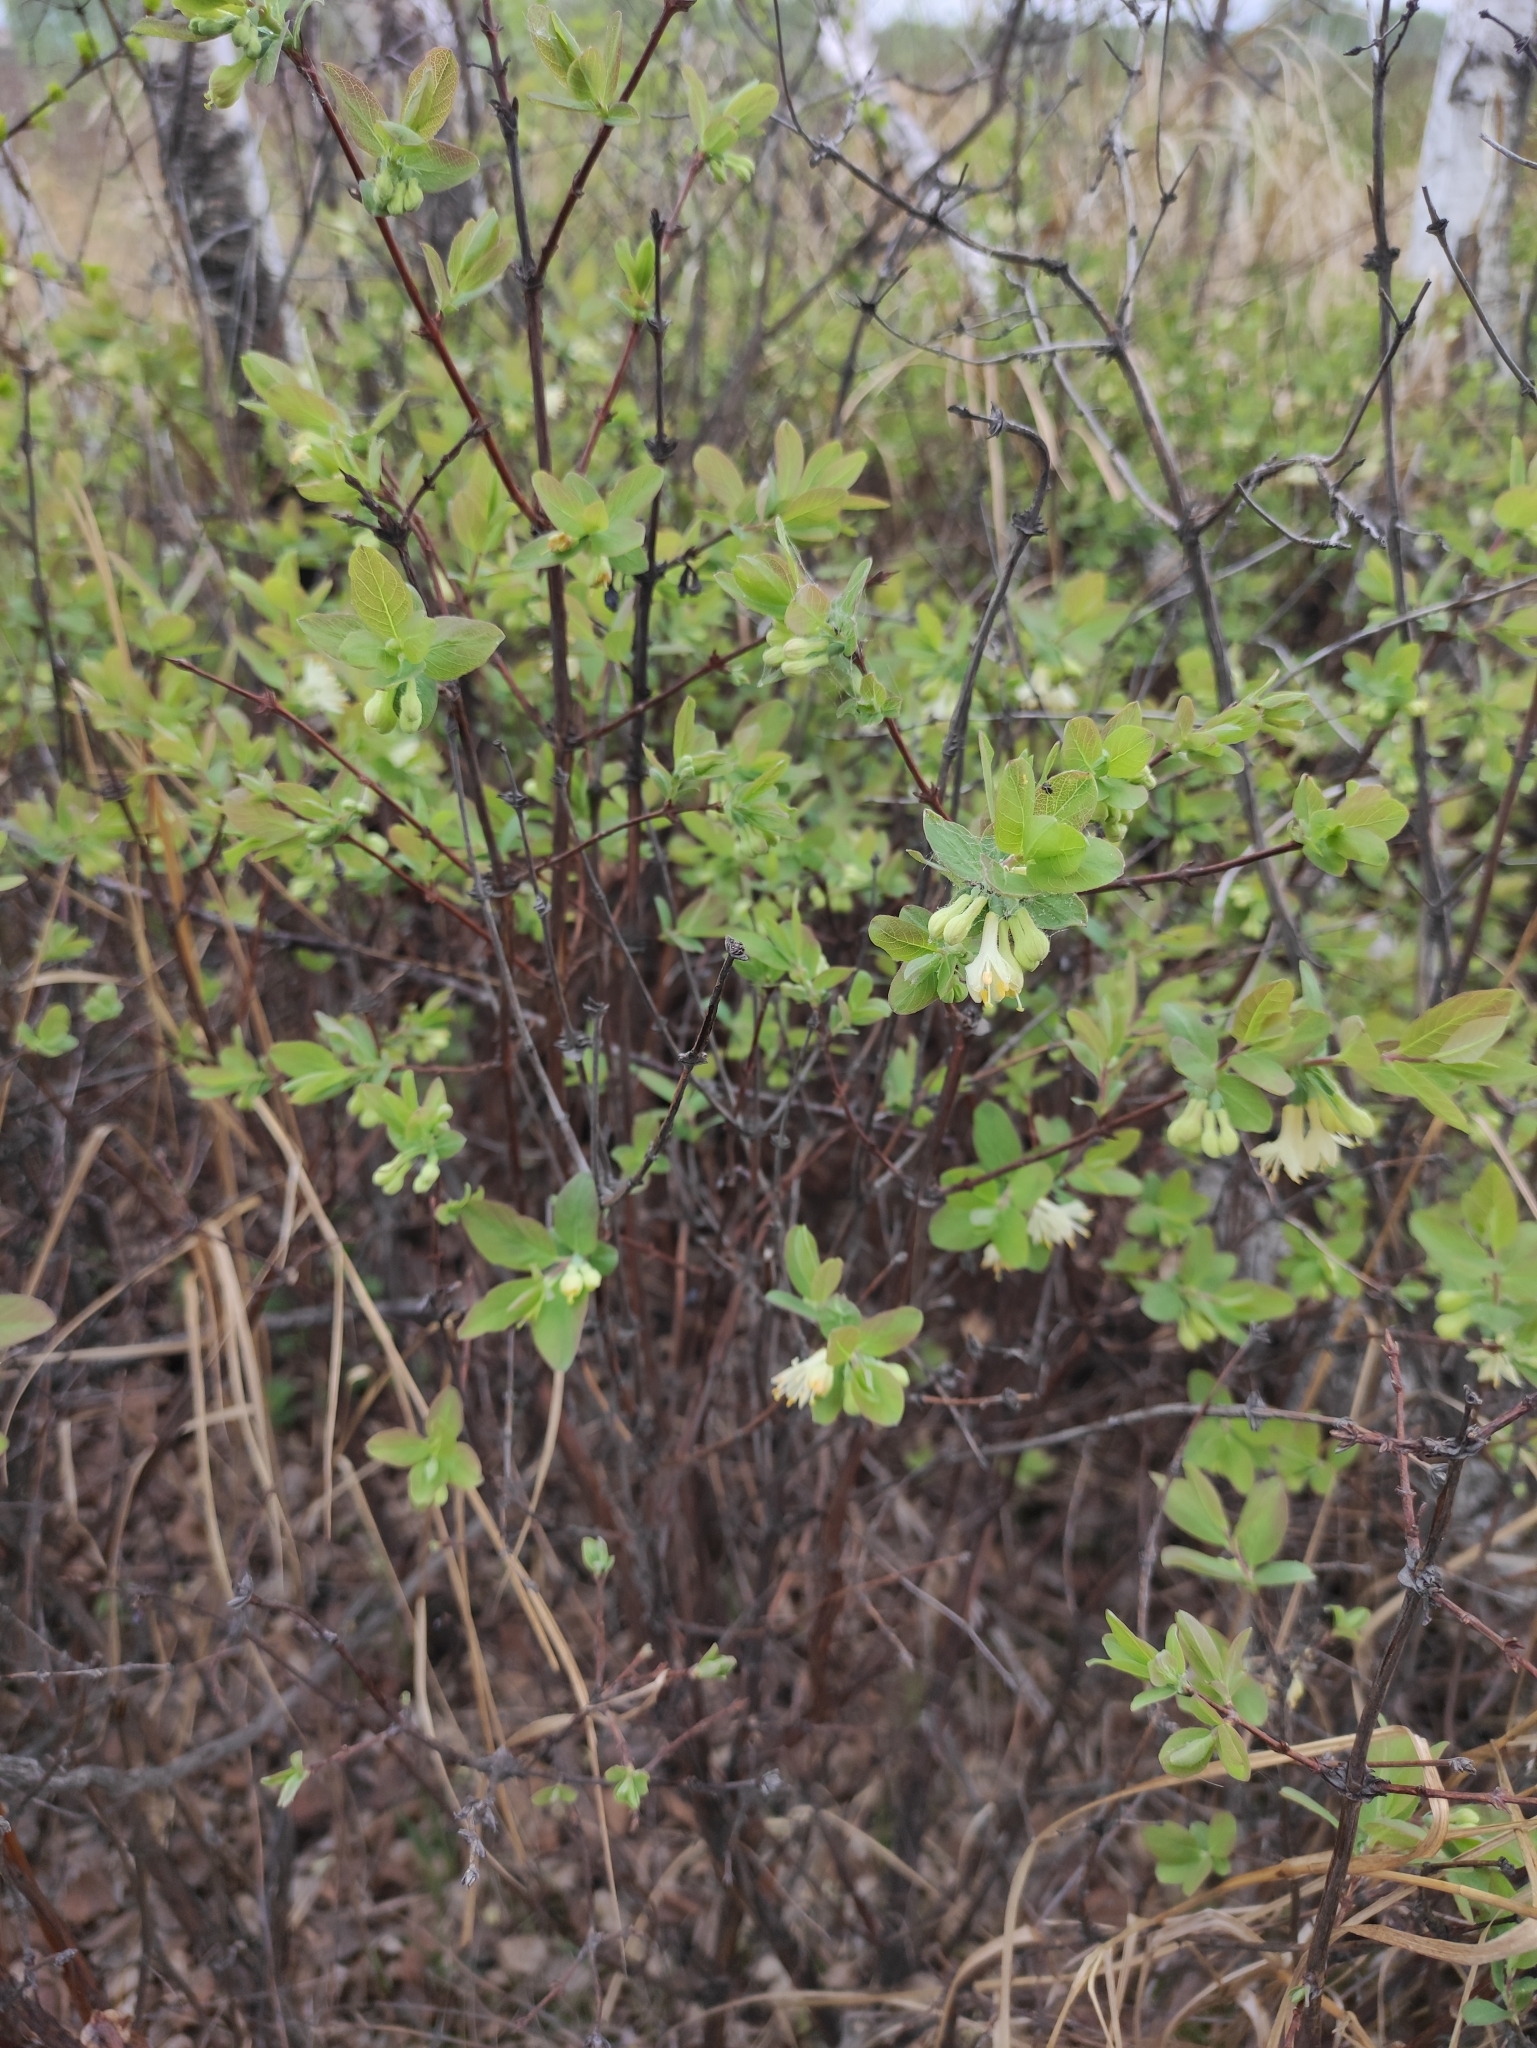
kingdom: Plantae
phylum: Tracheophyta
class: Magnoliopsida
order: Dipsacales
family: Caprifoliaceae
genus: Lonicera
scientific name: Lonicera caerulea
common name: Blue honeysuckle
